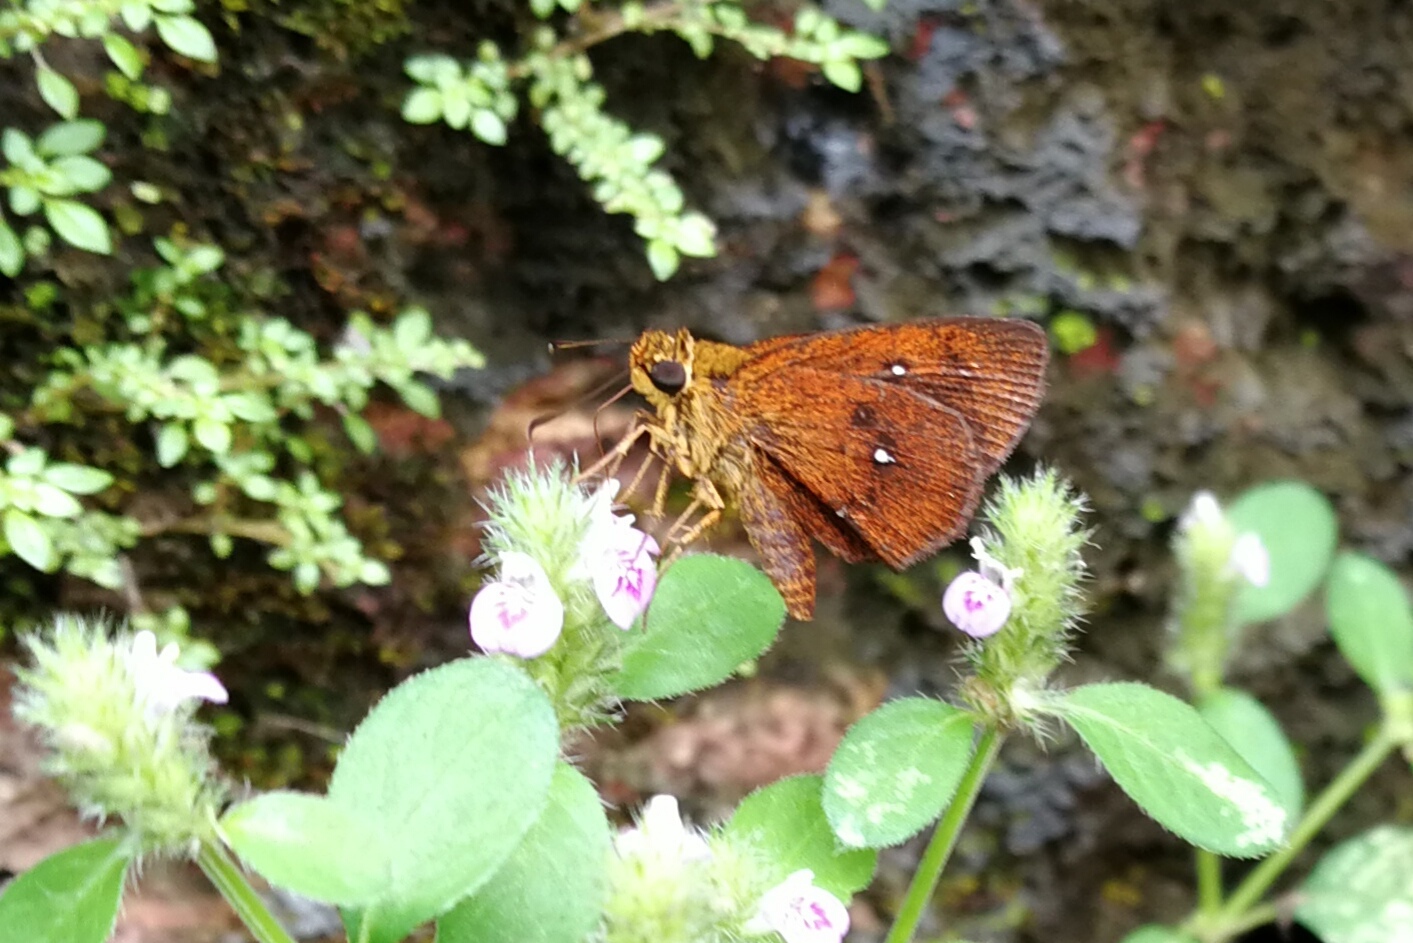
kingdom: Animalia
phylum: Arthropoda
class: Insecta
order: Lepidoptera
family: Hesperiidae
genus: Iambrix
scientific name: Iambrix salsala
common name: Chestnut bob
